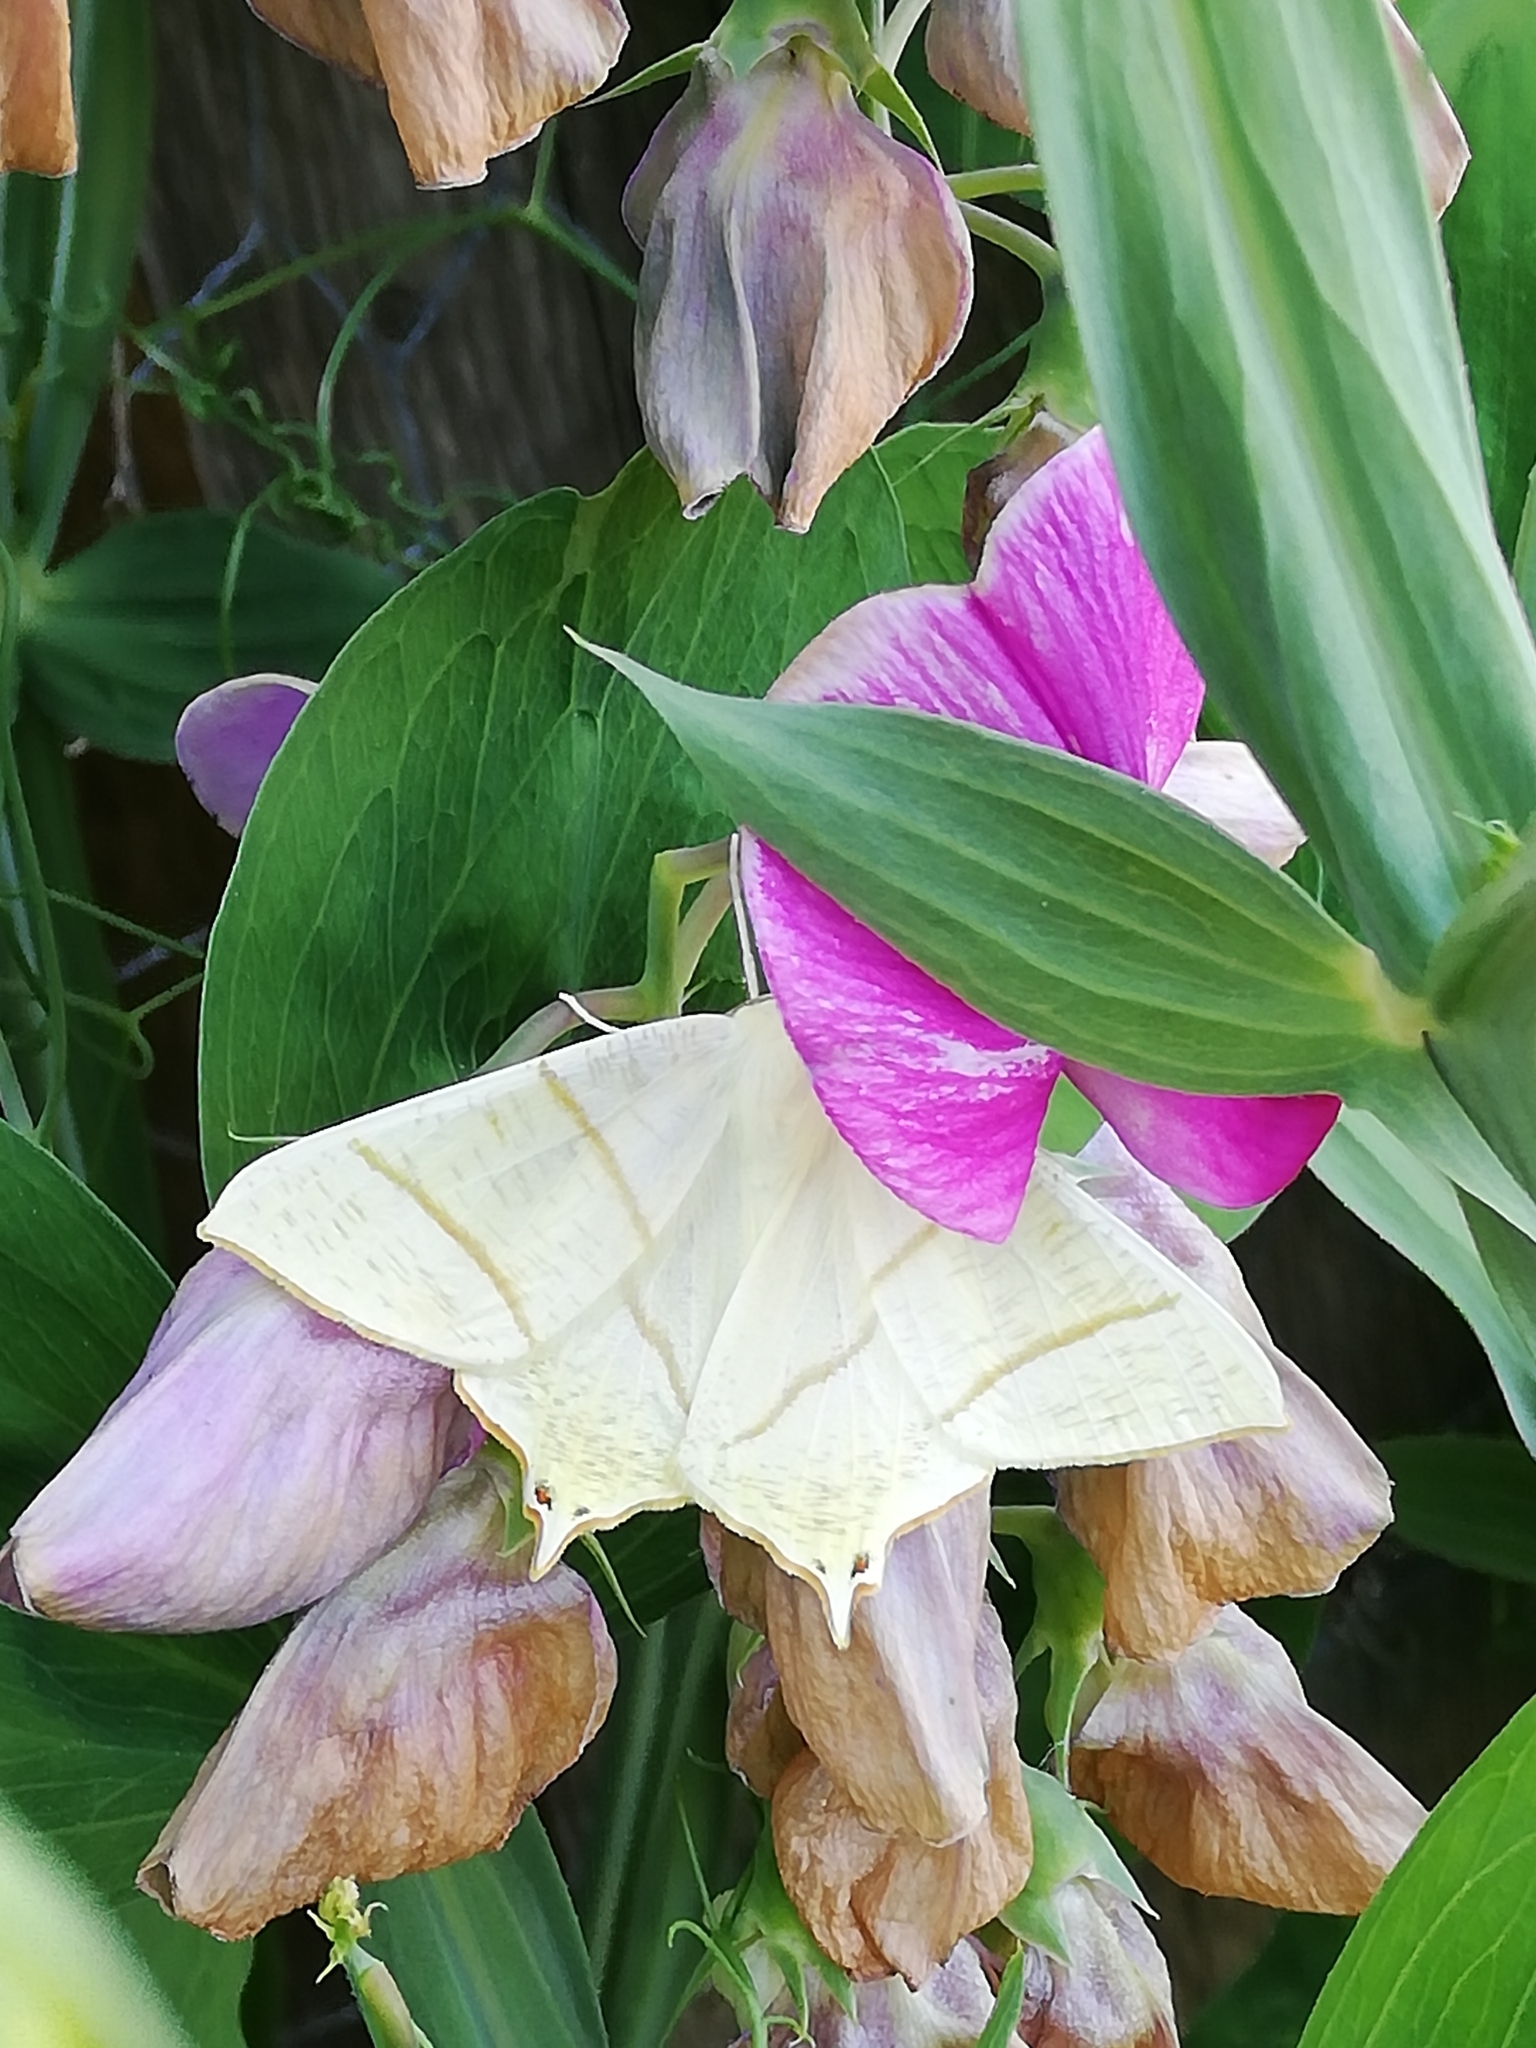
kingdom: Animalia
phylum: Arthropoda
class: Insecta
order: Lepidoptera
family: Geometridae
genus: Ourapteryx
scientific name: Ourapteryx sambucaria
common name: Swallow-tailed moth
